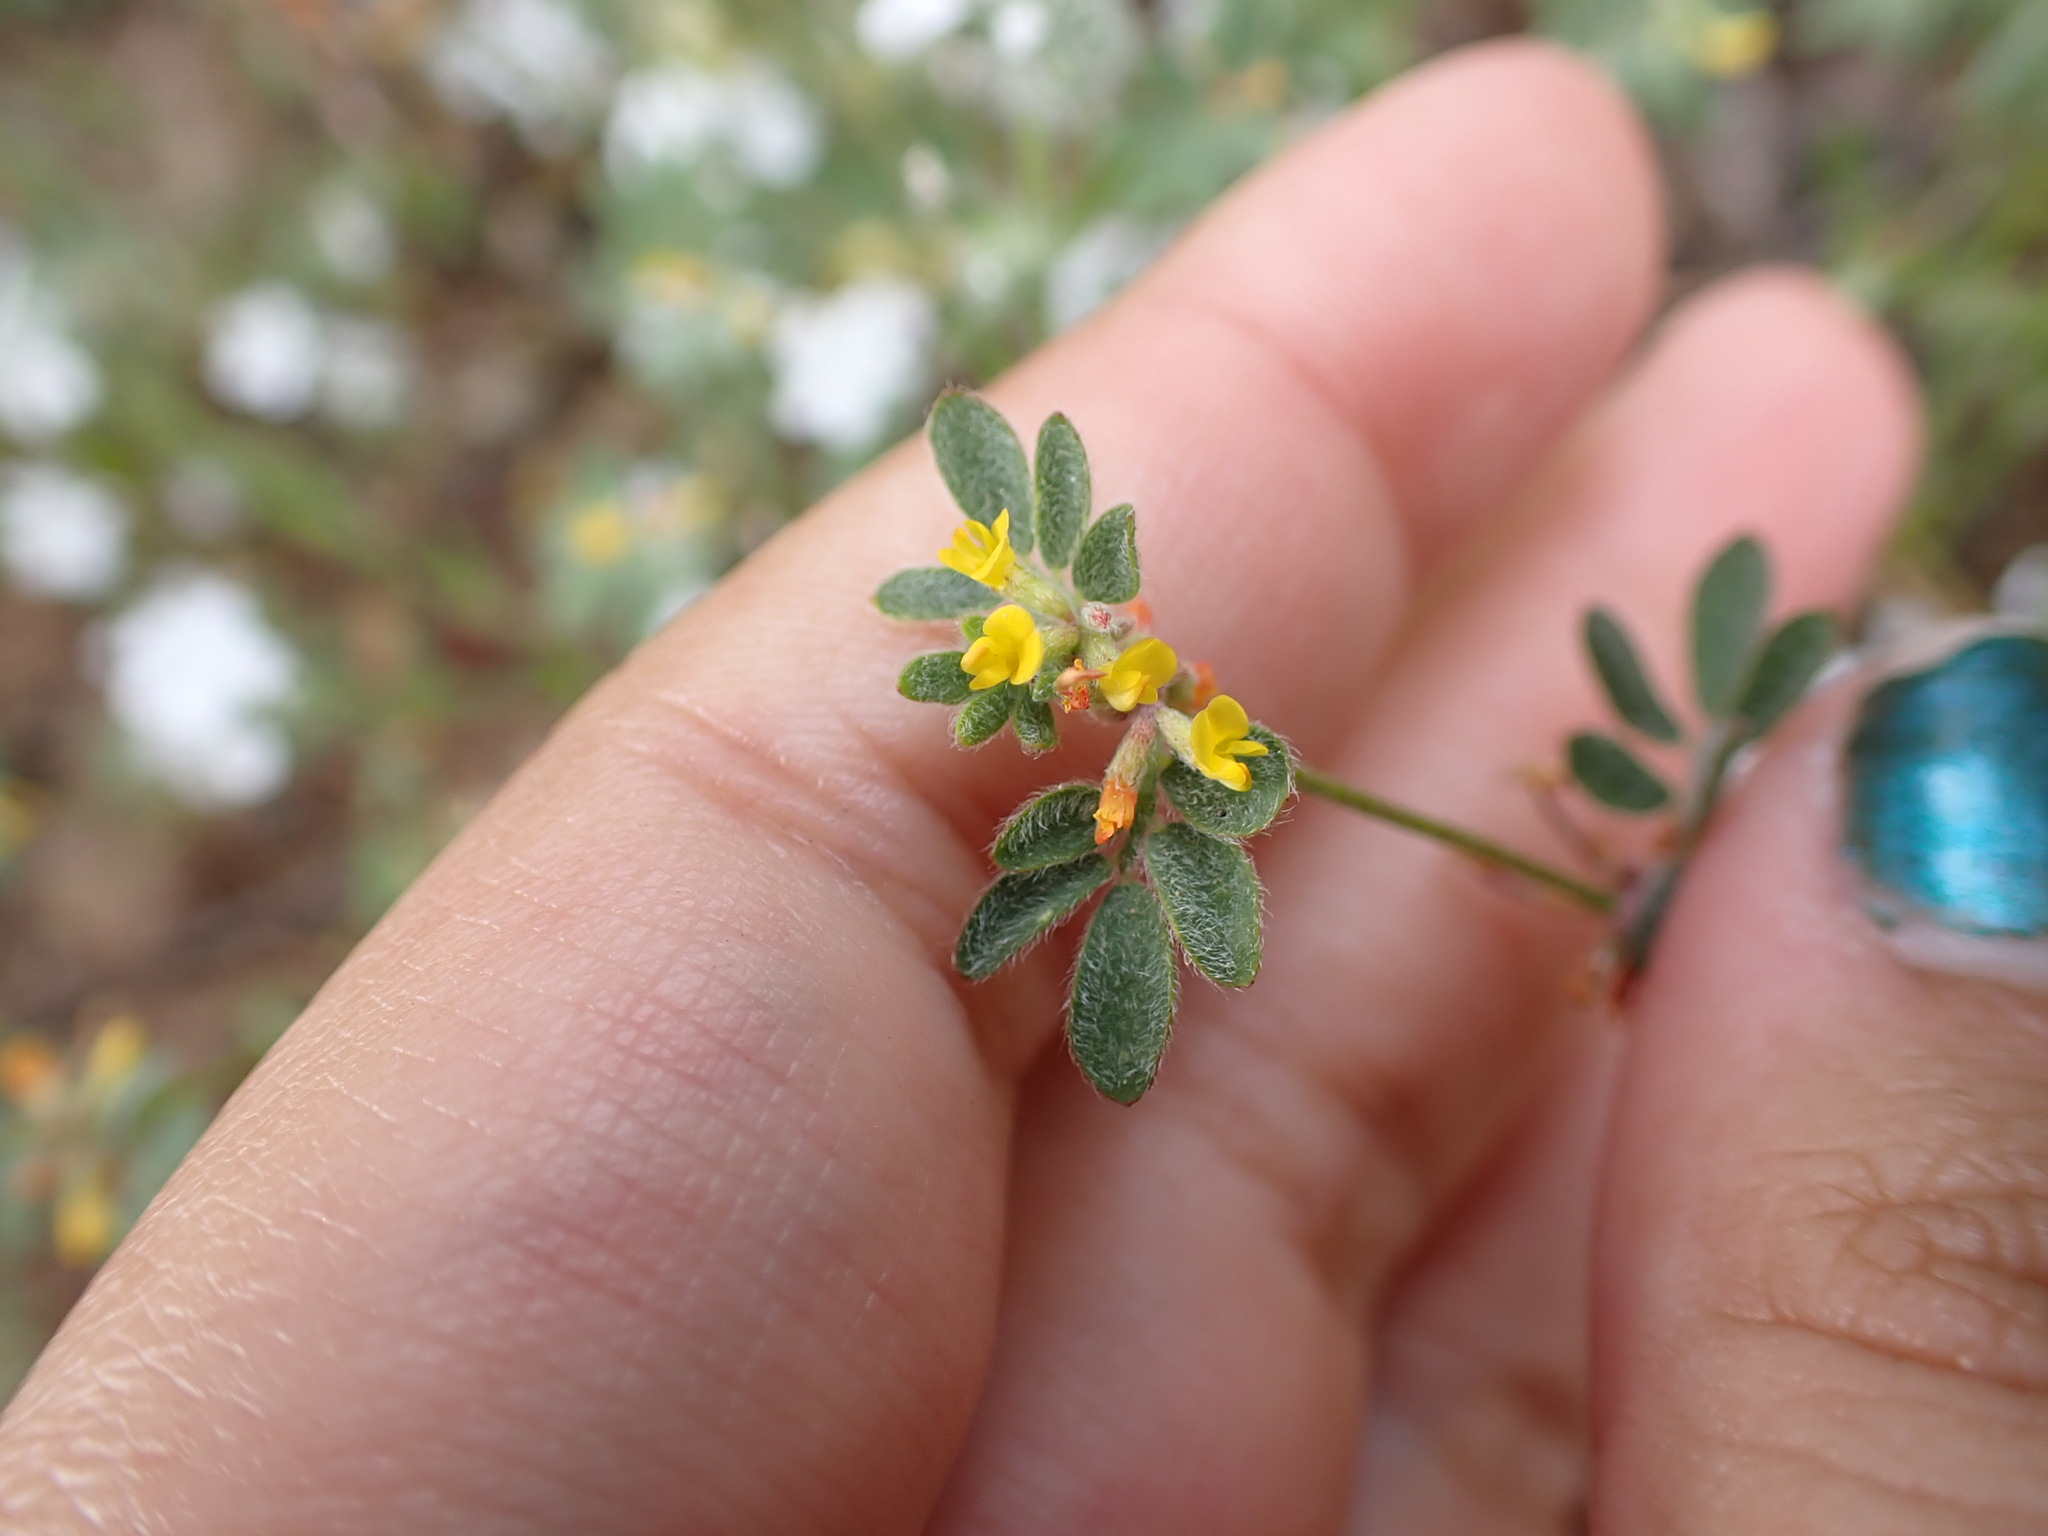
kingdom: Plantae
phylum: Tracheophyta
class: Magnoliopsida
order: Fabales
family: Fabaceae
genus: Acmispon
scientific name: Acmispon micranthus
